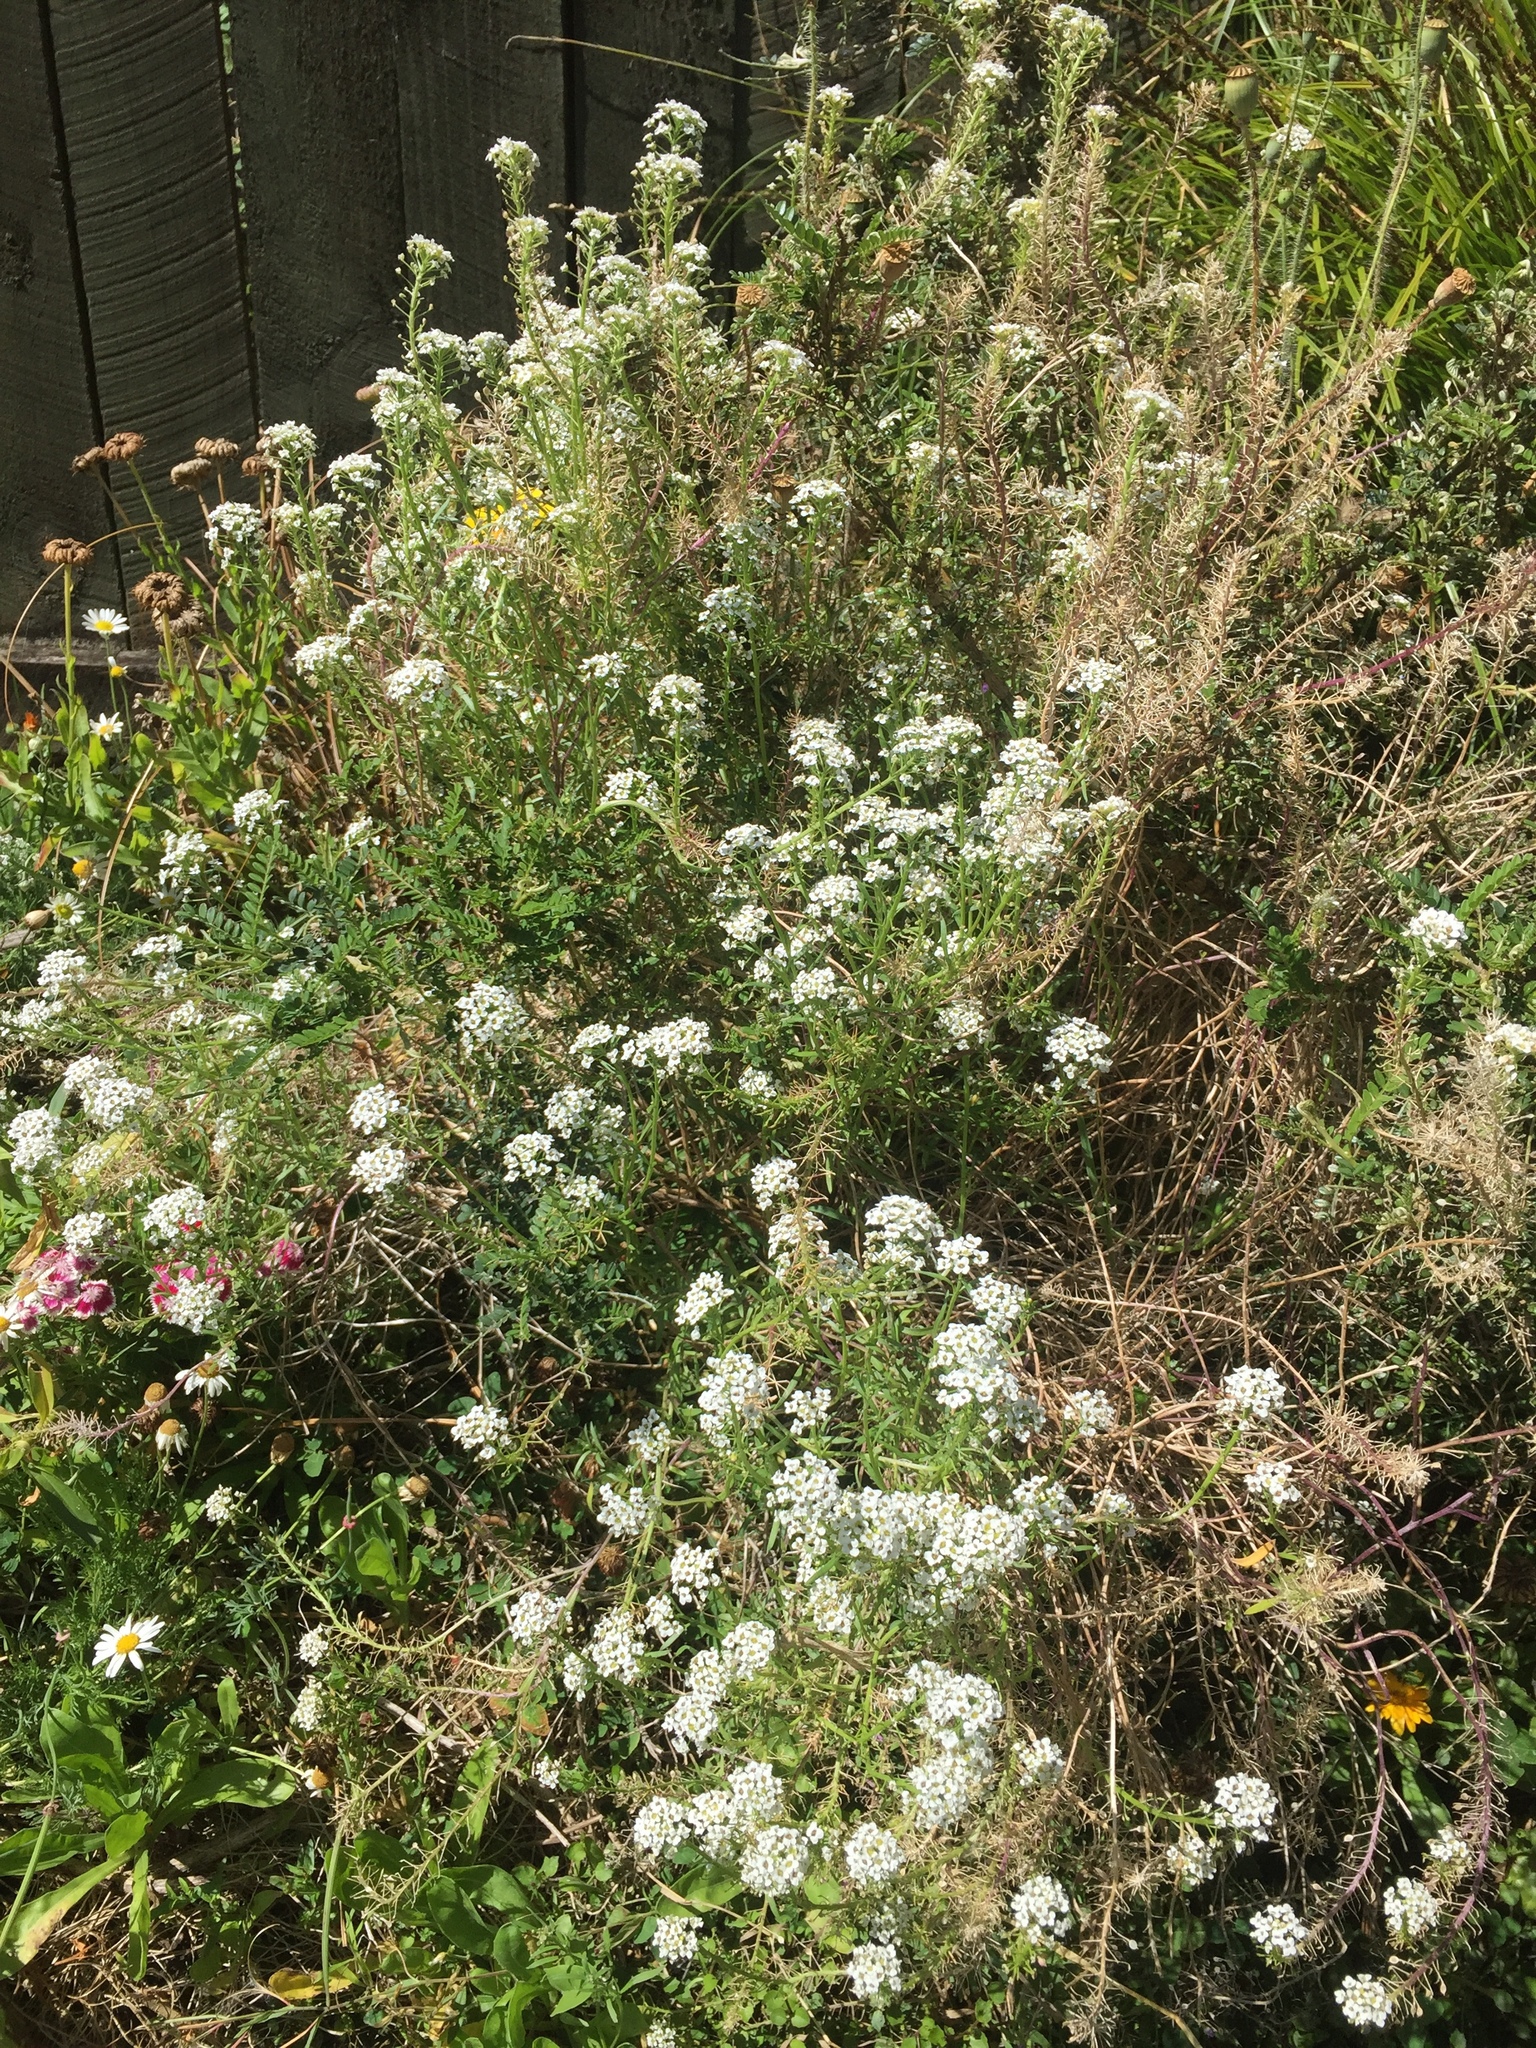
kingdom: Plantae
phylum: Tracheophyta
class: Magnoliopsida
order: Brassicales
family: Brassicaceae
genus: Lobularia
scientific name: Lobularia maritima
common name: Sweet alison
